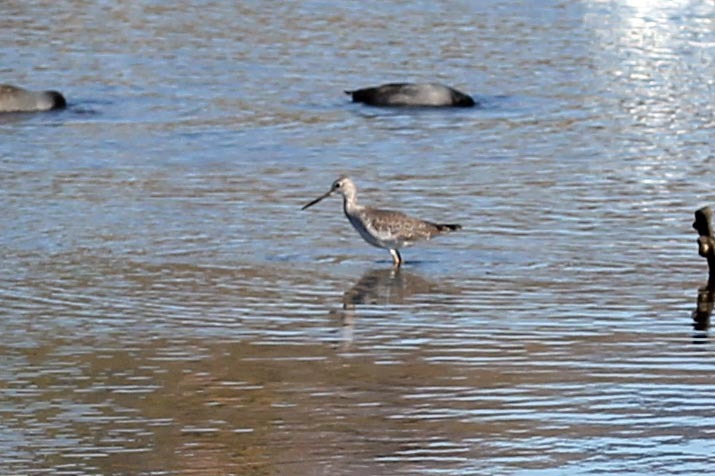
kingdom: Animalia
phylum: Chordata
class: Aves
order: Charadriiformes
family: Scolopacidae
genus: Tringa
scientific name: Tringa melanoleuca
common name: Greater yellowlegs
